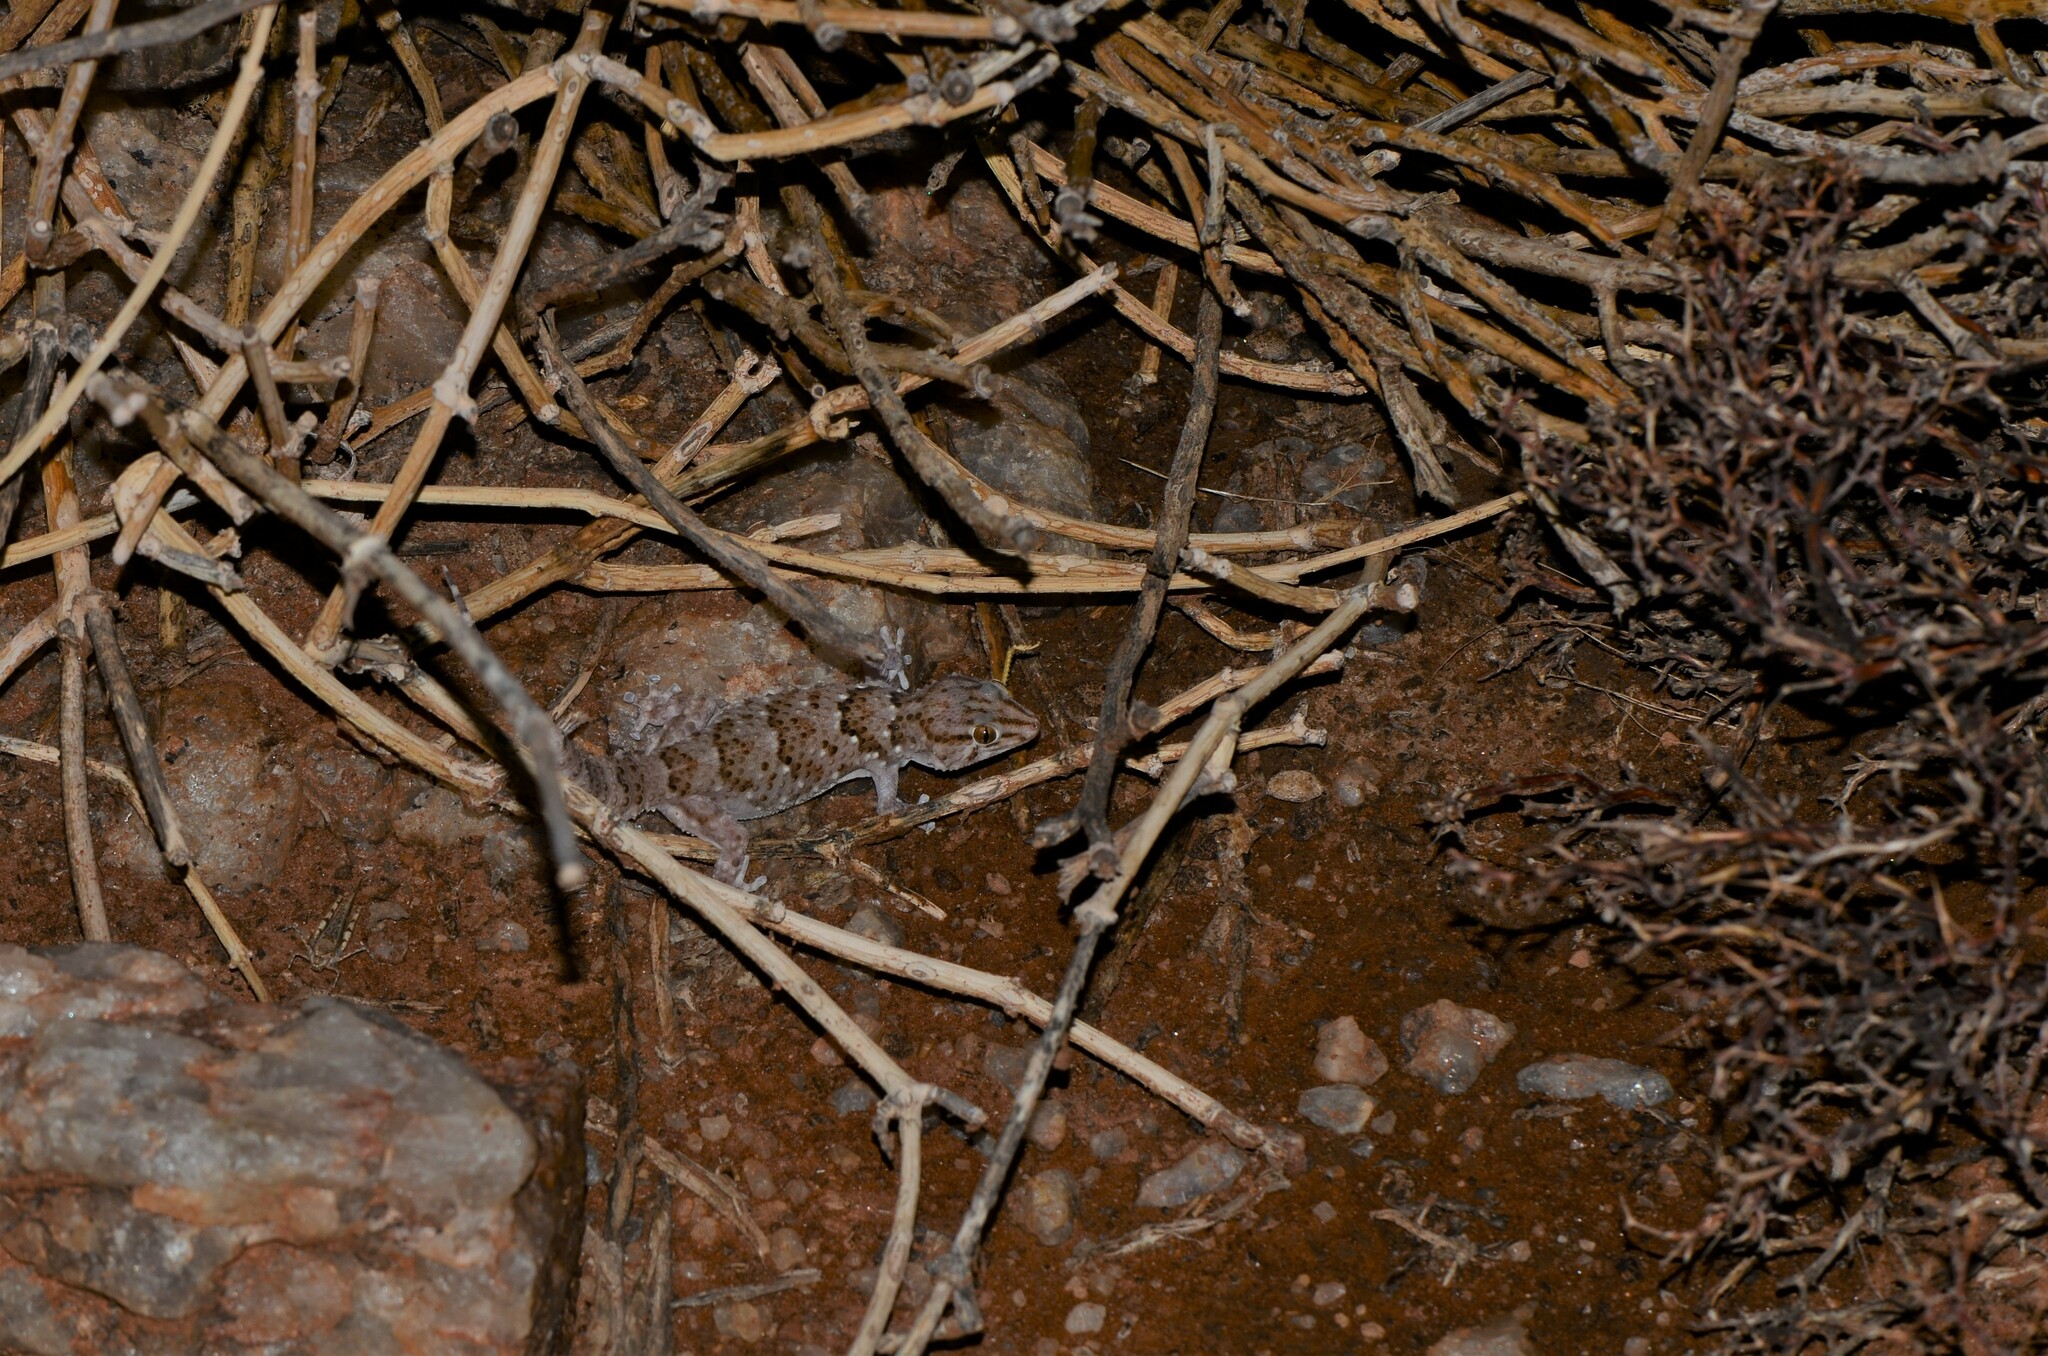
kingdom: Animalia
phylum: Chordata
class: Squamata
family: Gekkonidae
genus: Chondrodactylus
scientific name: Chondrodactylus laevigatus
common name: Fischer's thick-toed gecko
